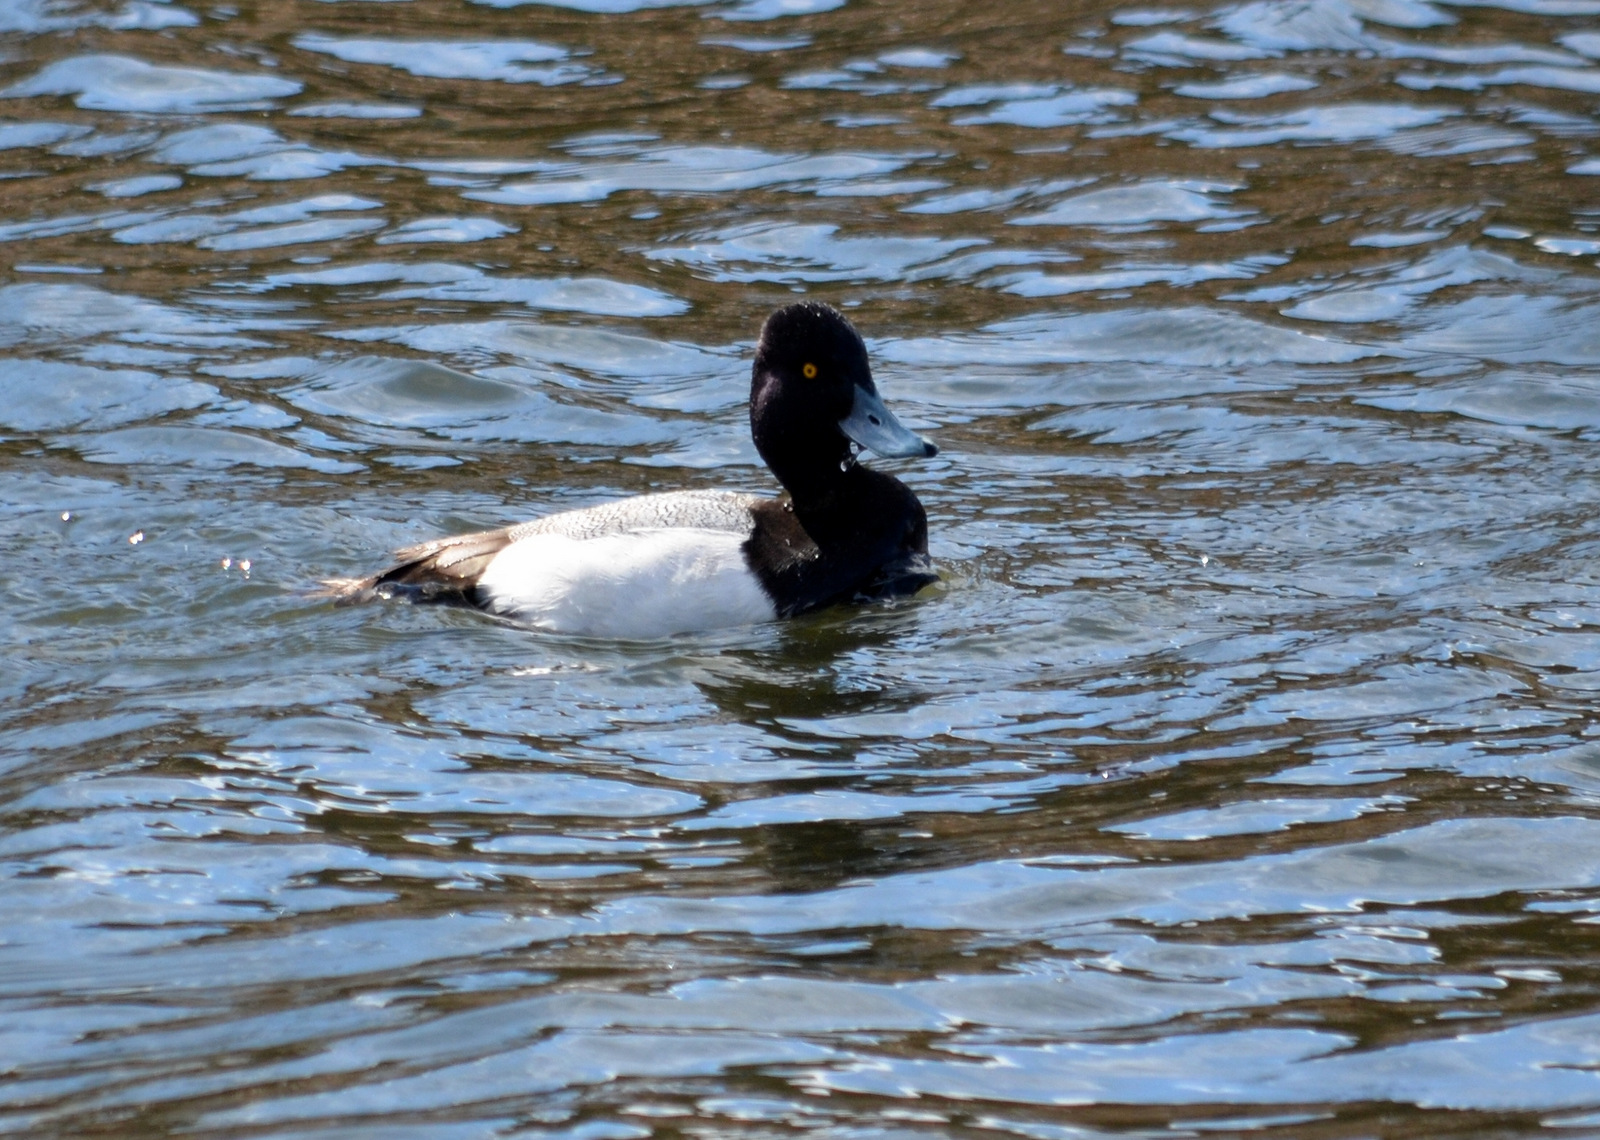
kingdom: Animalia
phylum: Chordata
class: Aves
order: Anseriformes
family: Anatidae
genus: Aythya
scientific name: Aythya affinis
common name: Lesser scaup
